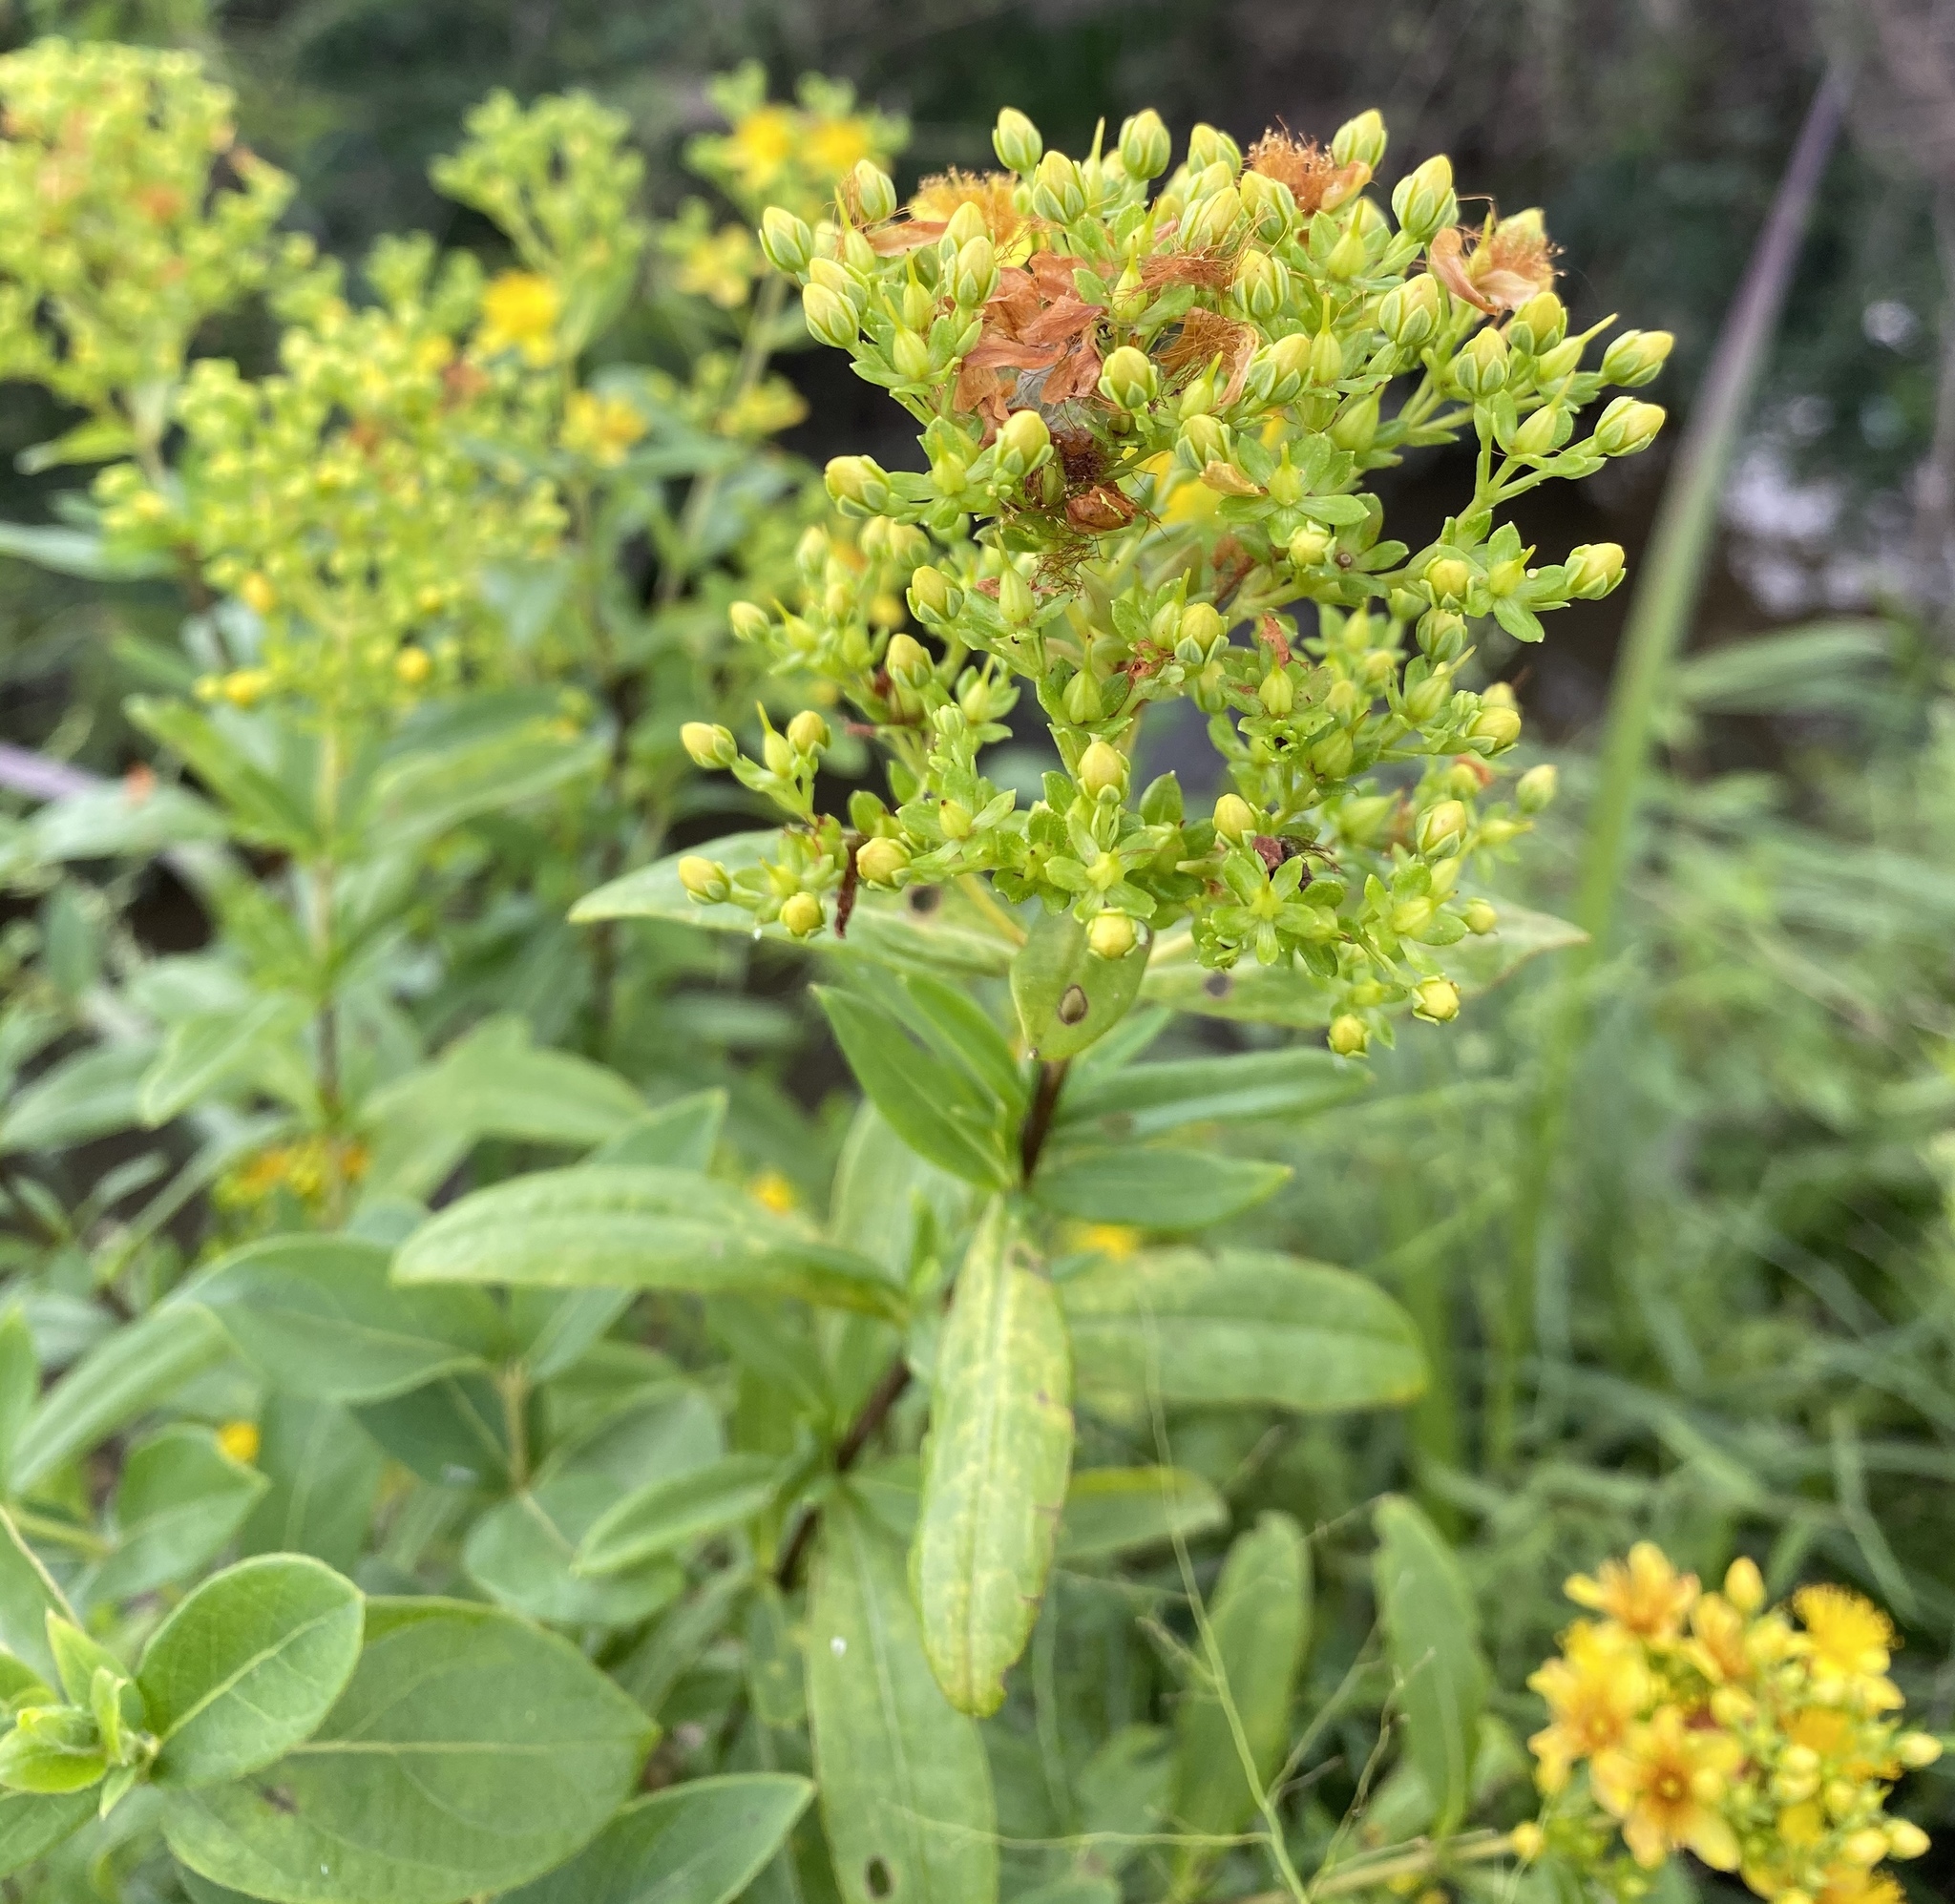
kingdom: Plantae
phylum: Tracheophyta
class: Magnoliopsida
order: Malpighiales
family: Hypericaceae
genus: Hypericum
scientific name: Hypericum lobocarpum
